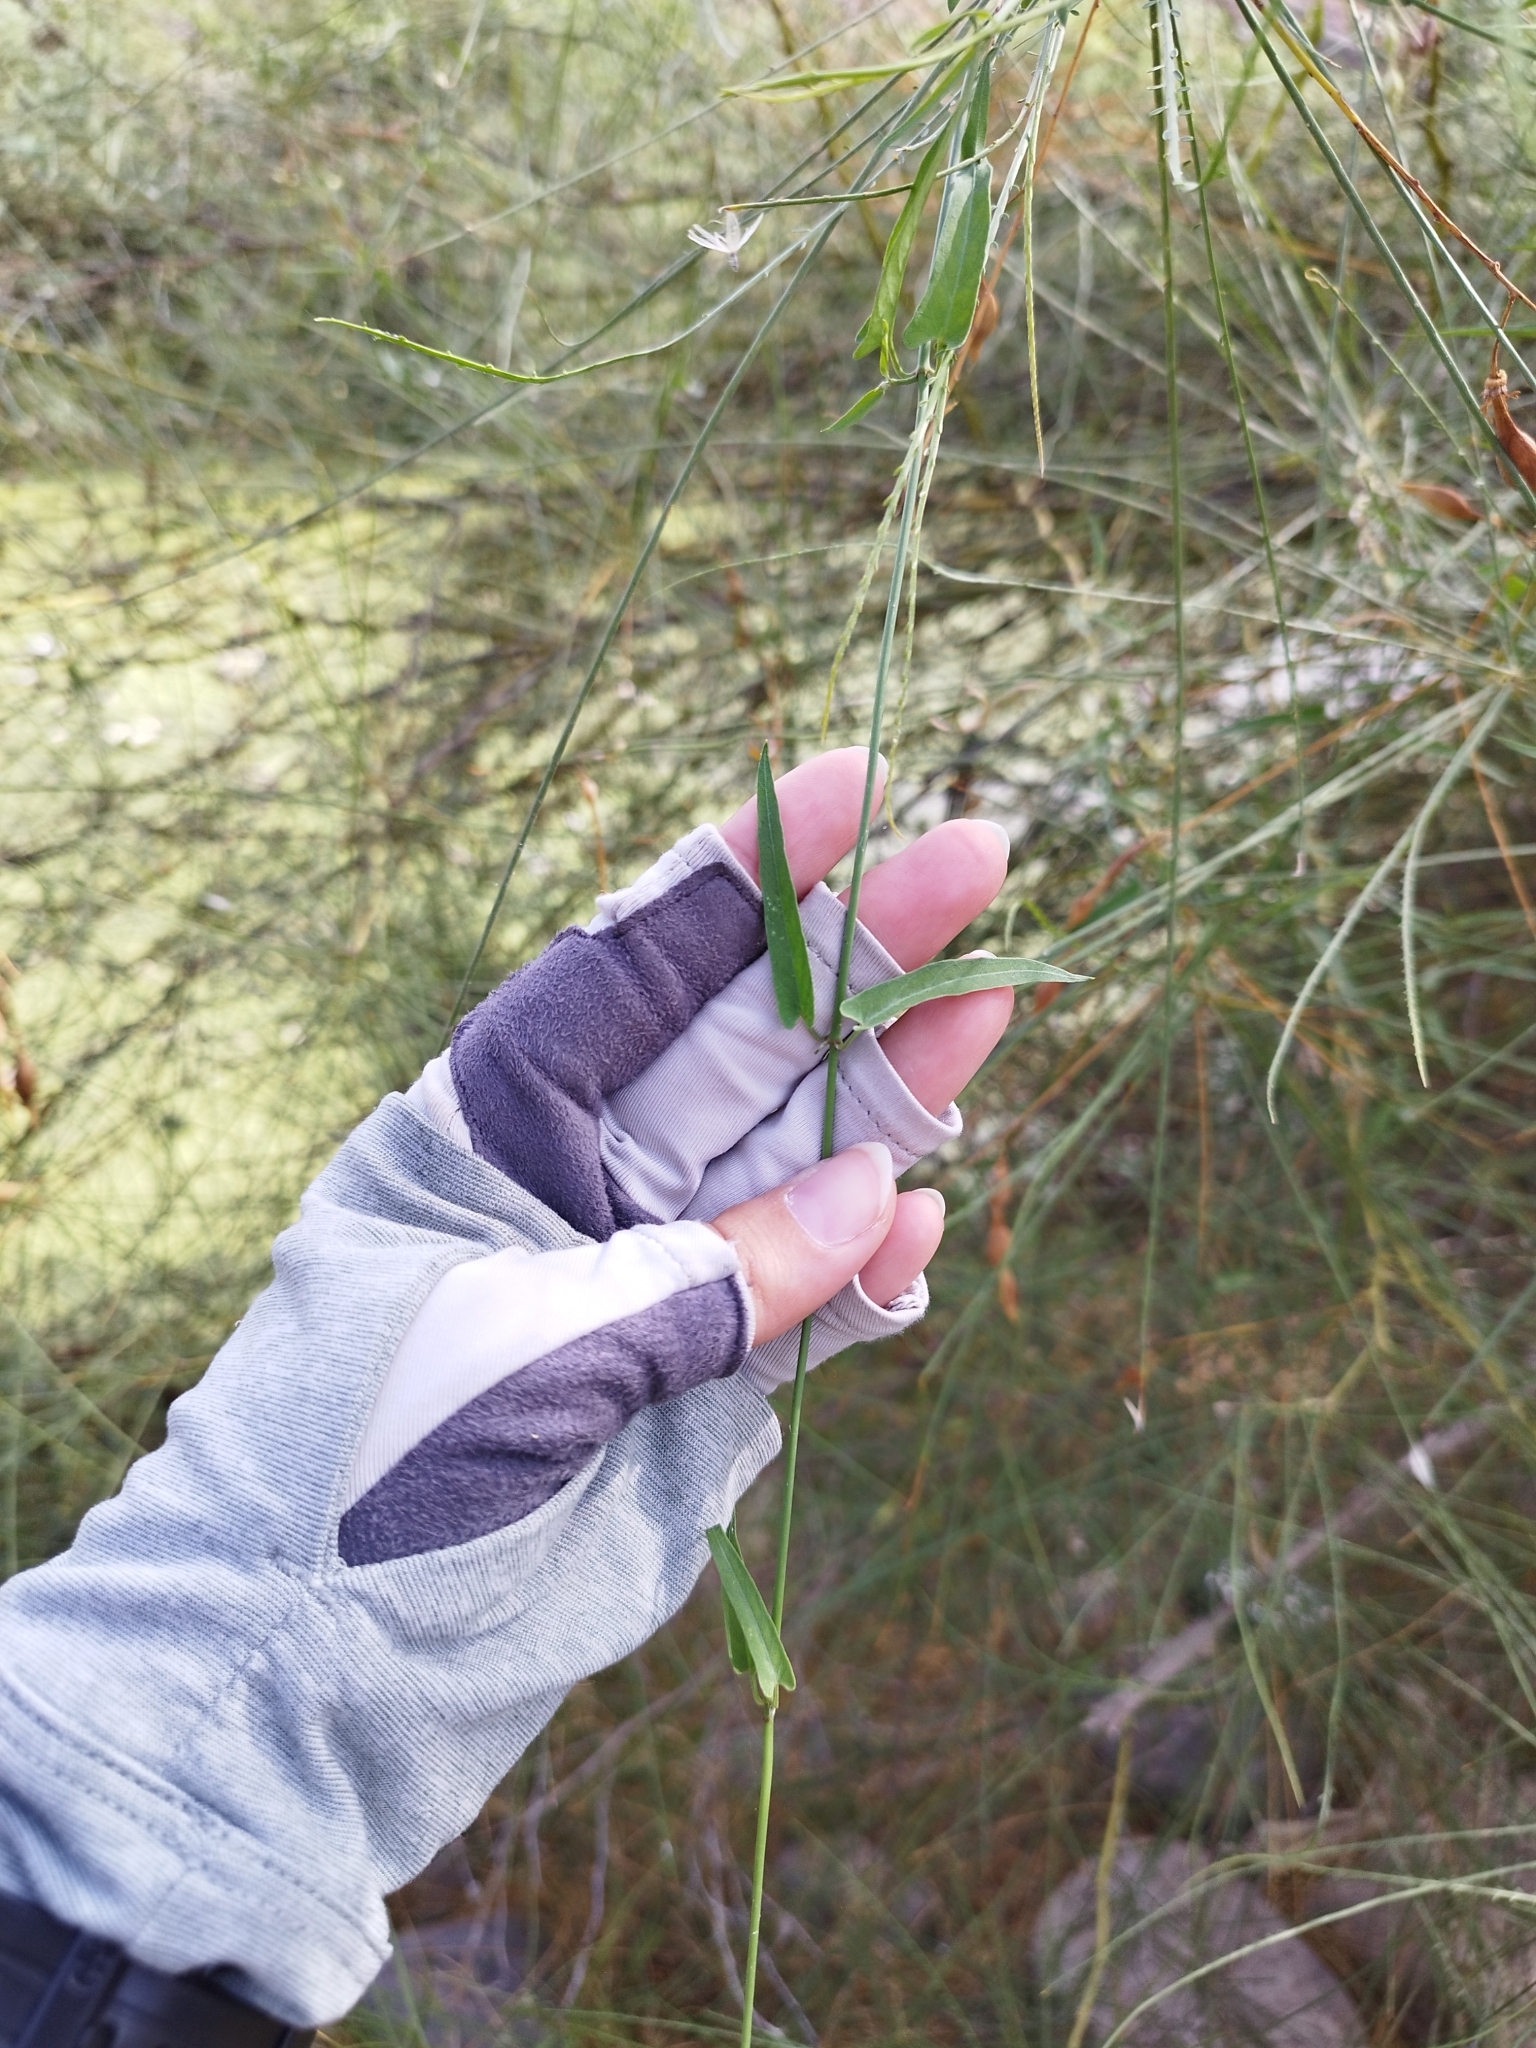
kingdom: Plantae
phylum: Tracheophyta
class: Magnoliopsida
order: Gentianales
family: Apocynaceae
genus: Funastrum
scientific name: Funastrum heterophyllum
